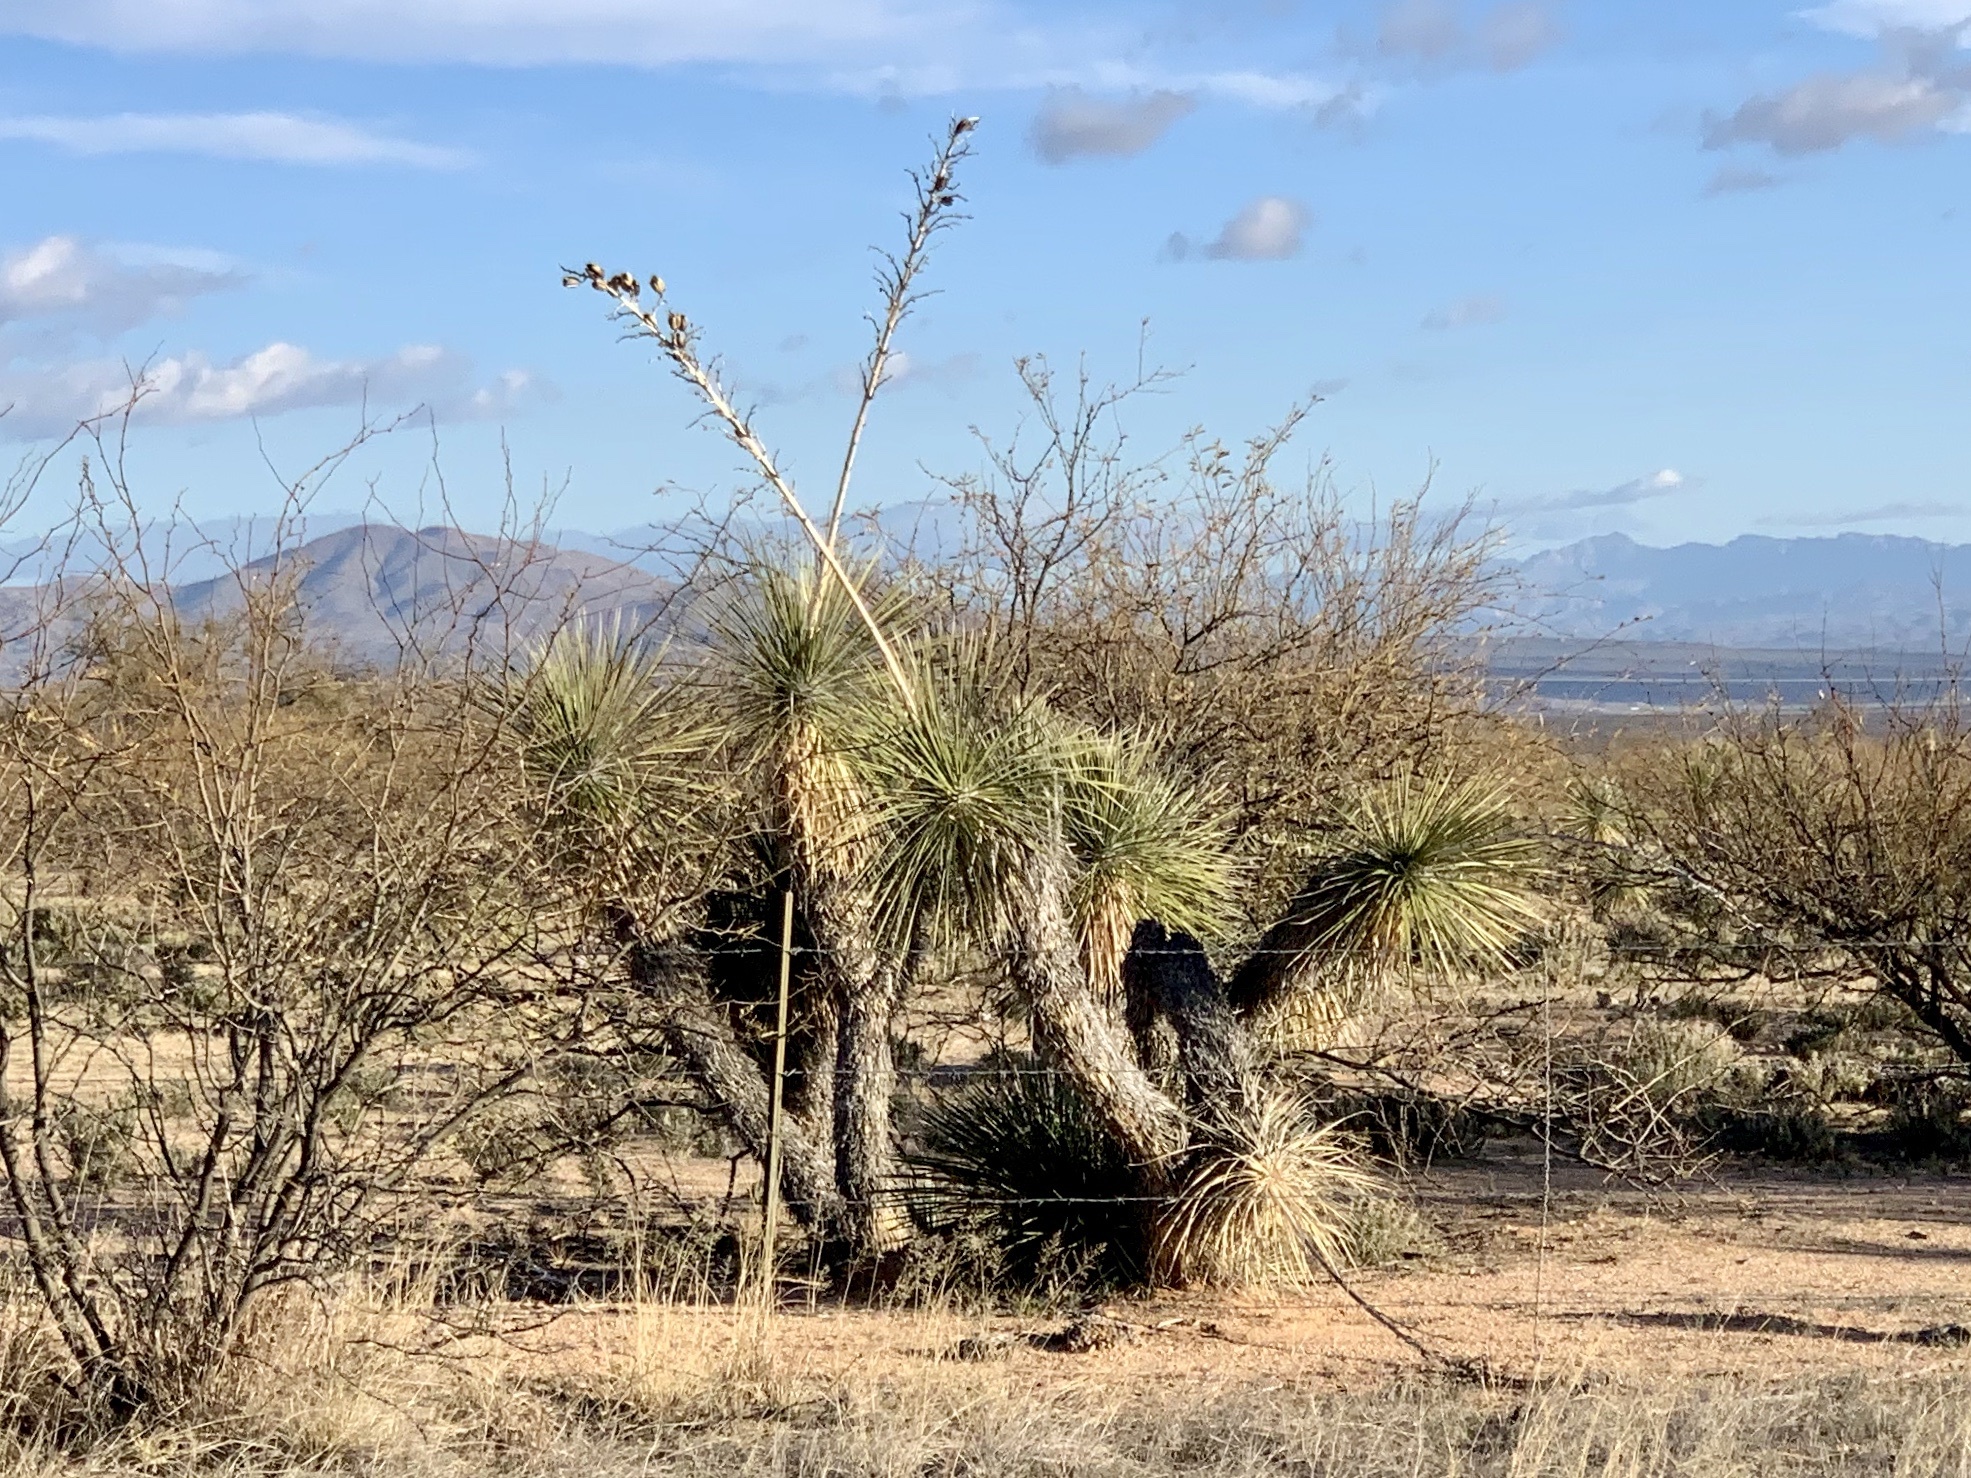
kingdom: Plantae
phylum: Tracheophyta
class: Liliopsida
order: Asparagales
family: Asparagaceae
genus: Yucca
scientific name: Yucca elata
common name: Palmella
